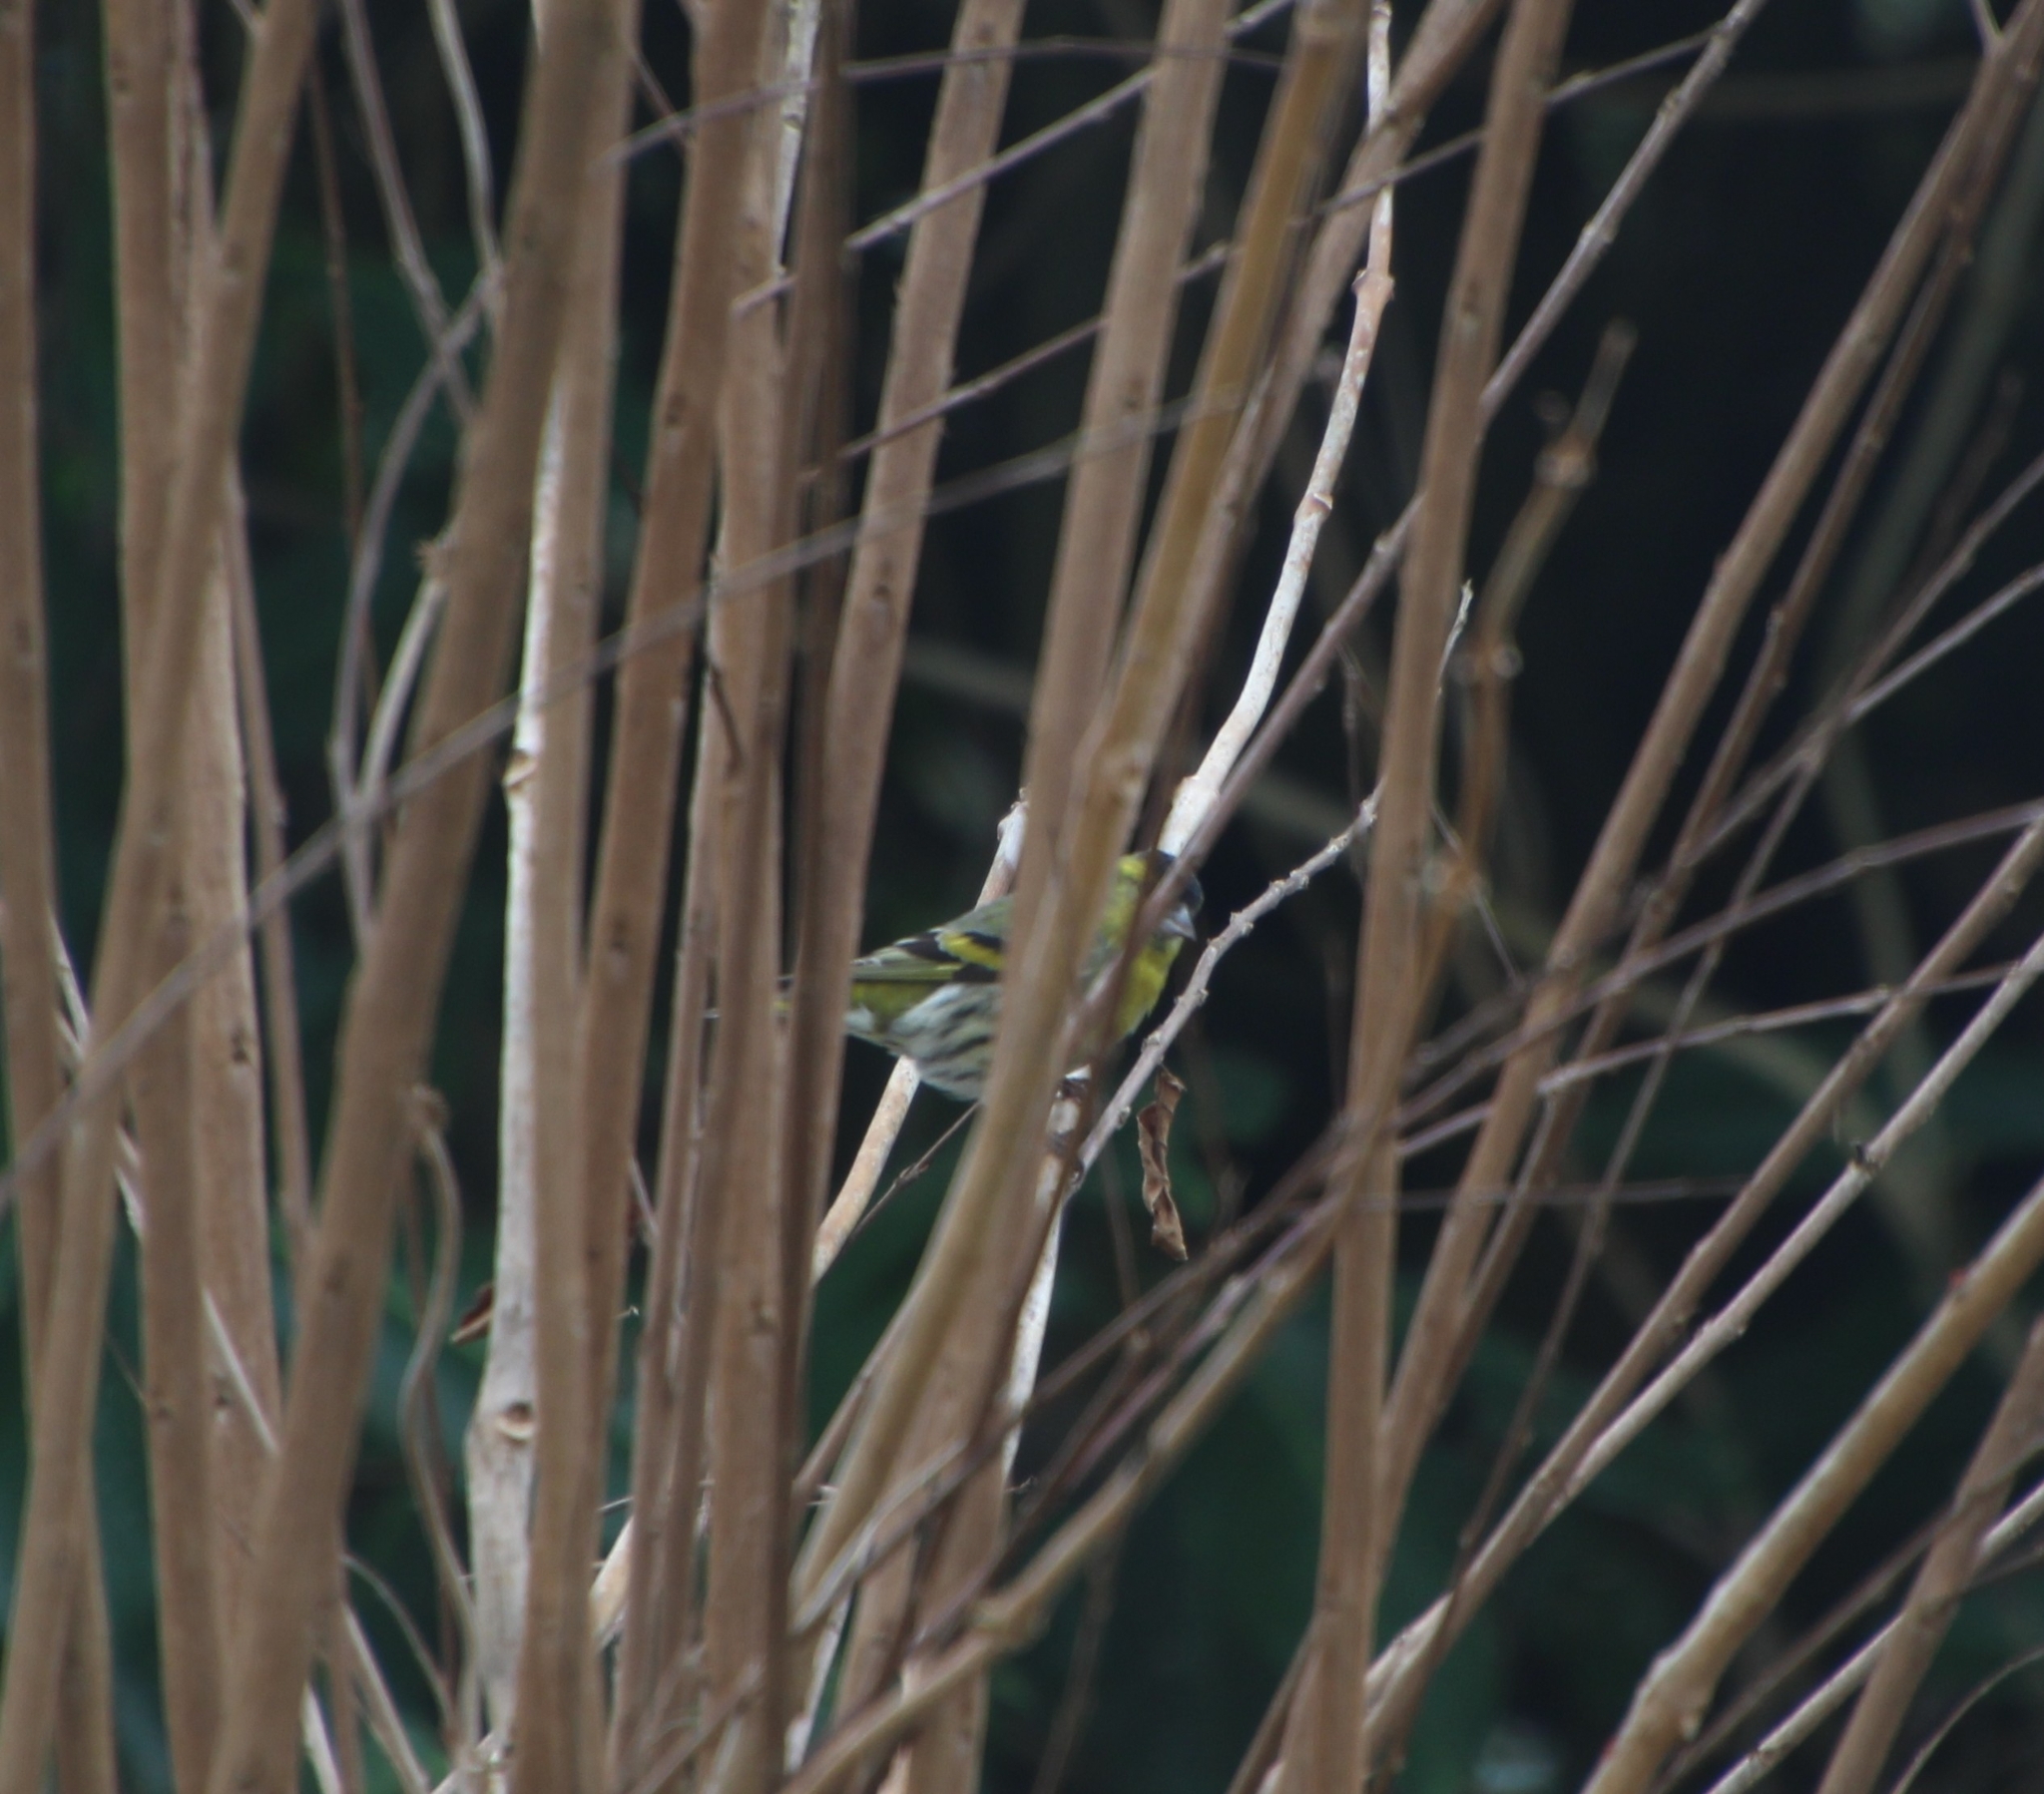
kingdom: Animalia
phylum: Chordata
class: Aves
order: Passeriformes
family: Fringillidae
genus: Spinus
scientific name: Spinus spinus
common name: Eurasian siskin
